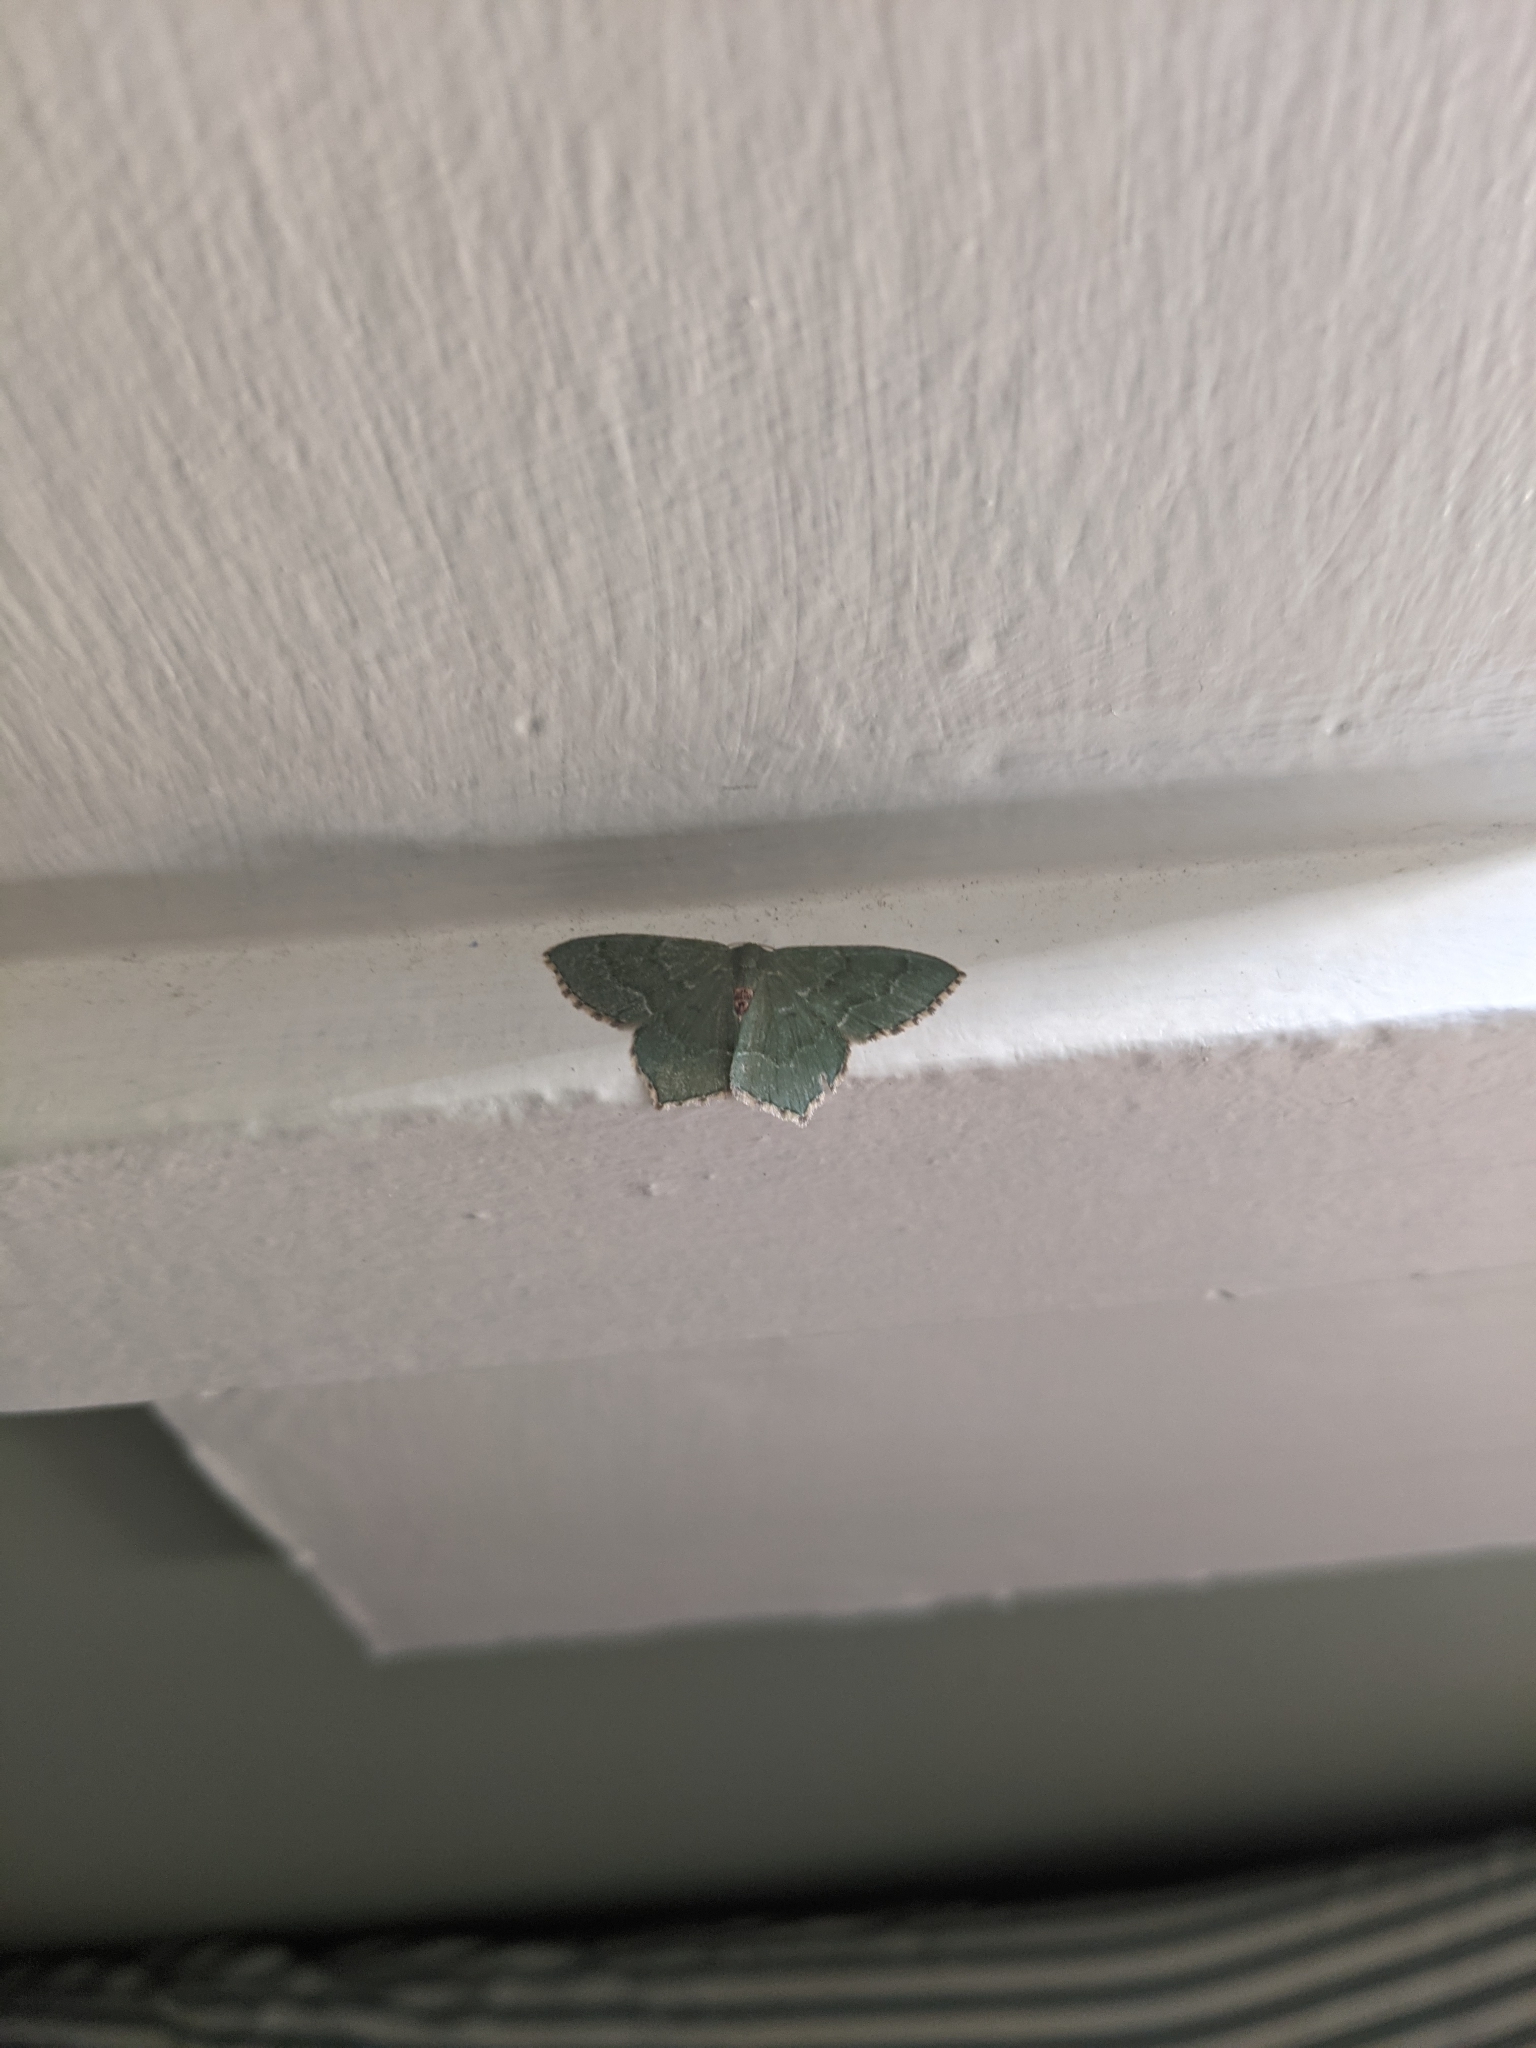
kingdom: Animalia
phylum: Arthropoda
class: Insecta
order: Lepidoptera
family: Geometridae
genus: Hemithea
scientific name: Hemithea aestivaria
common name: Common emerald
